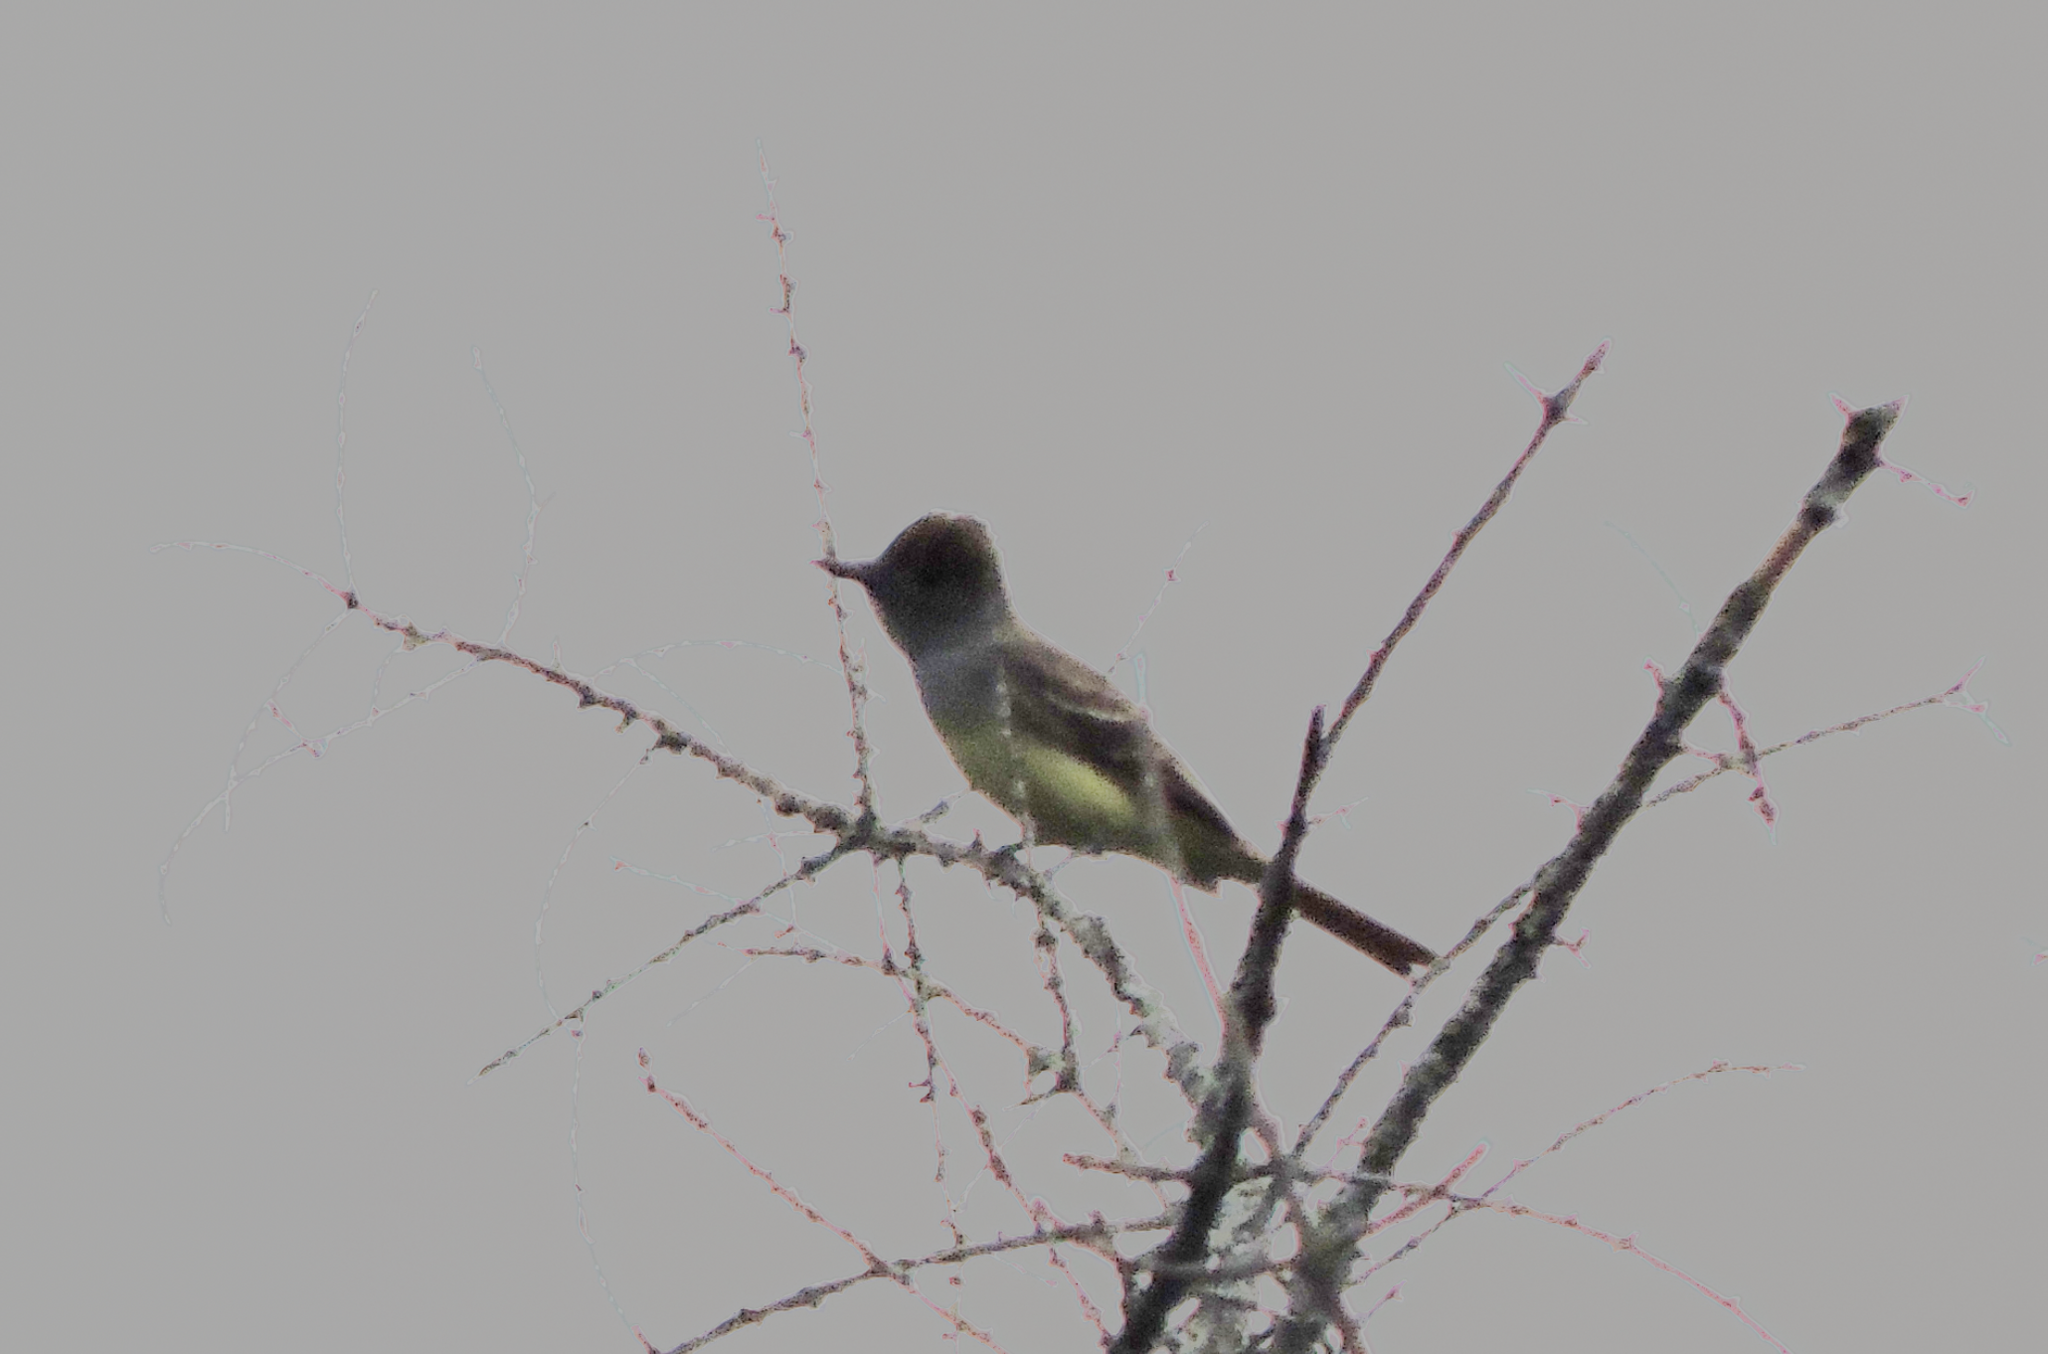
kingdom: Animalia
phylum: Chordata
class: Aves
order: Passeriformes
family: Tyrannidae
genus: Myiarchus
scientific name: Myiarchus crinitus
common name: Great crested flycatcher
